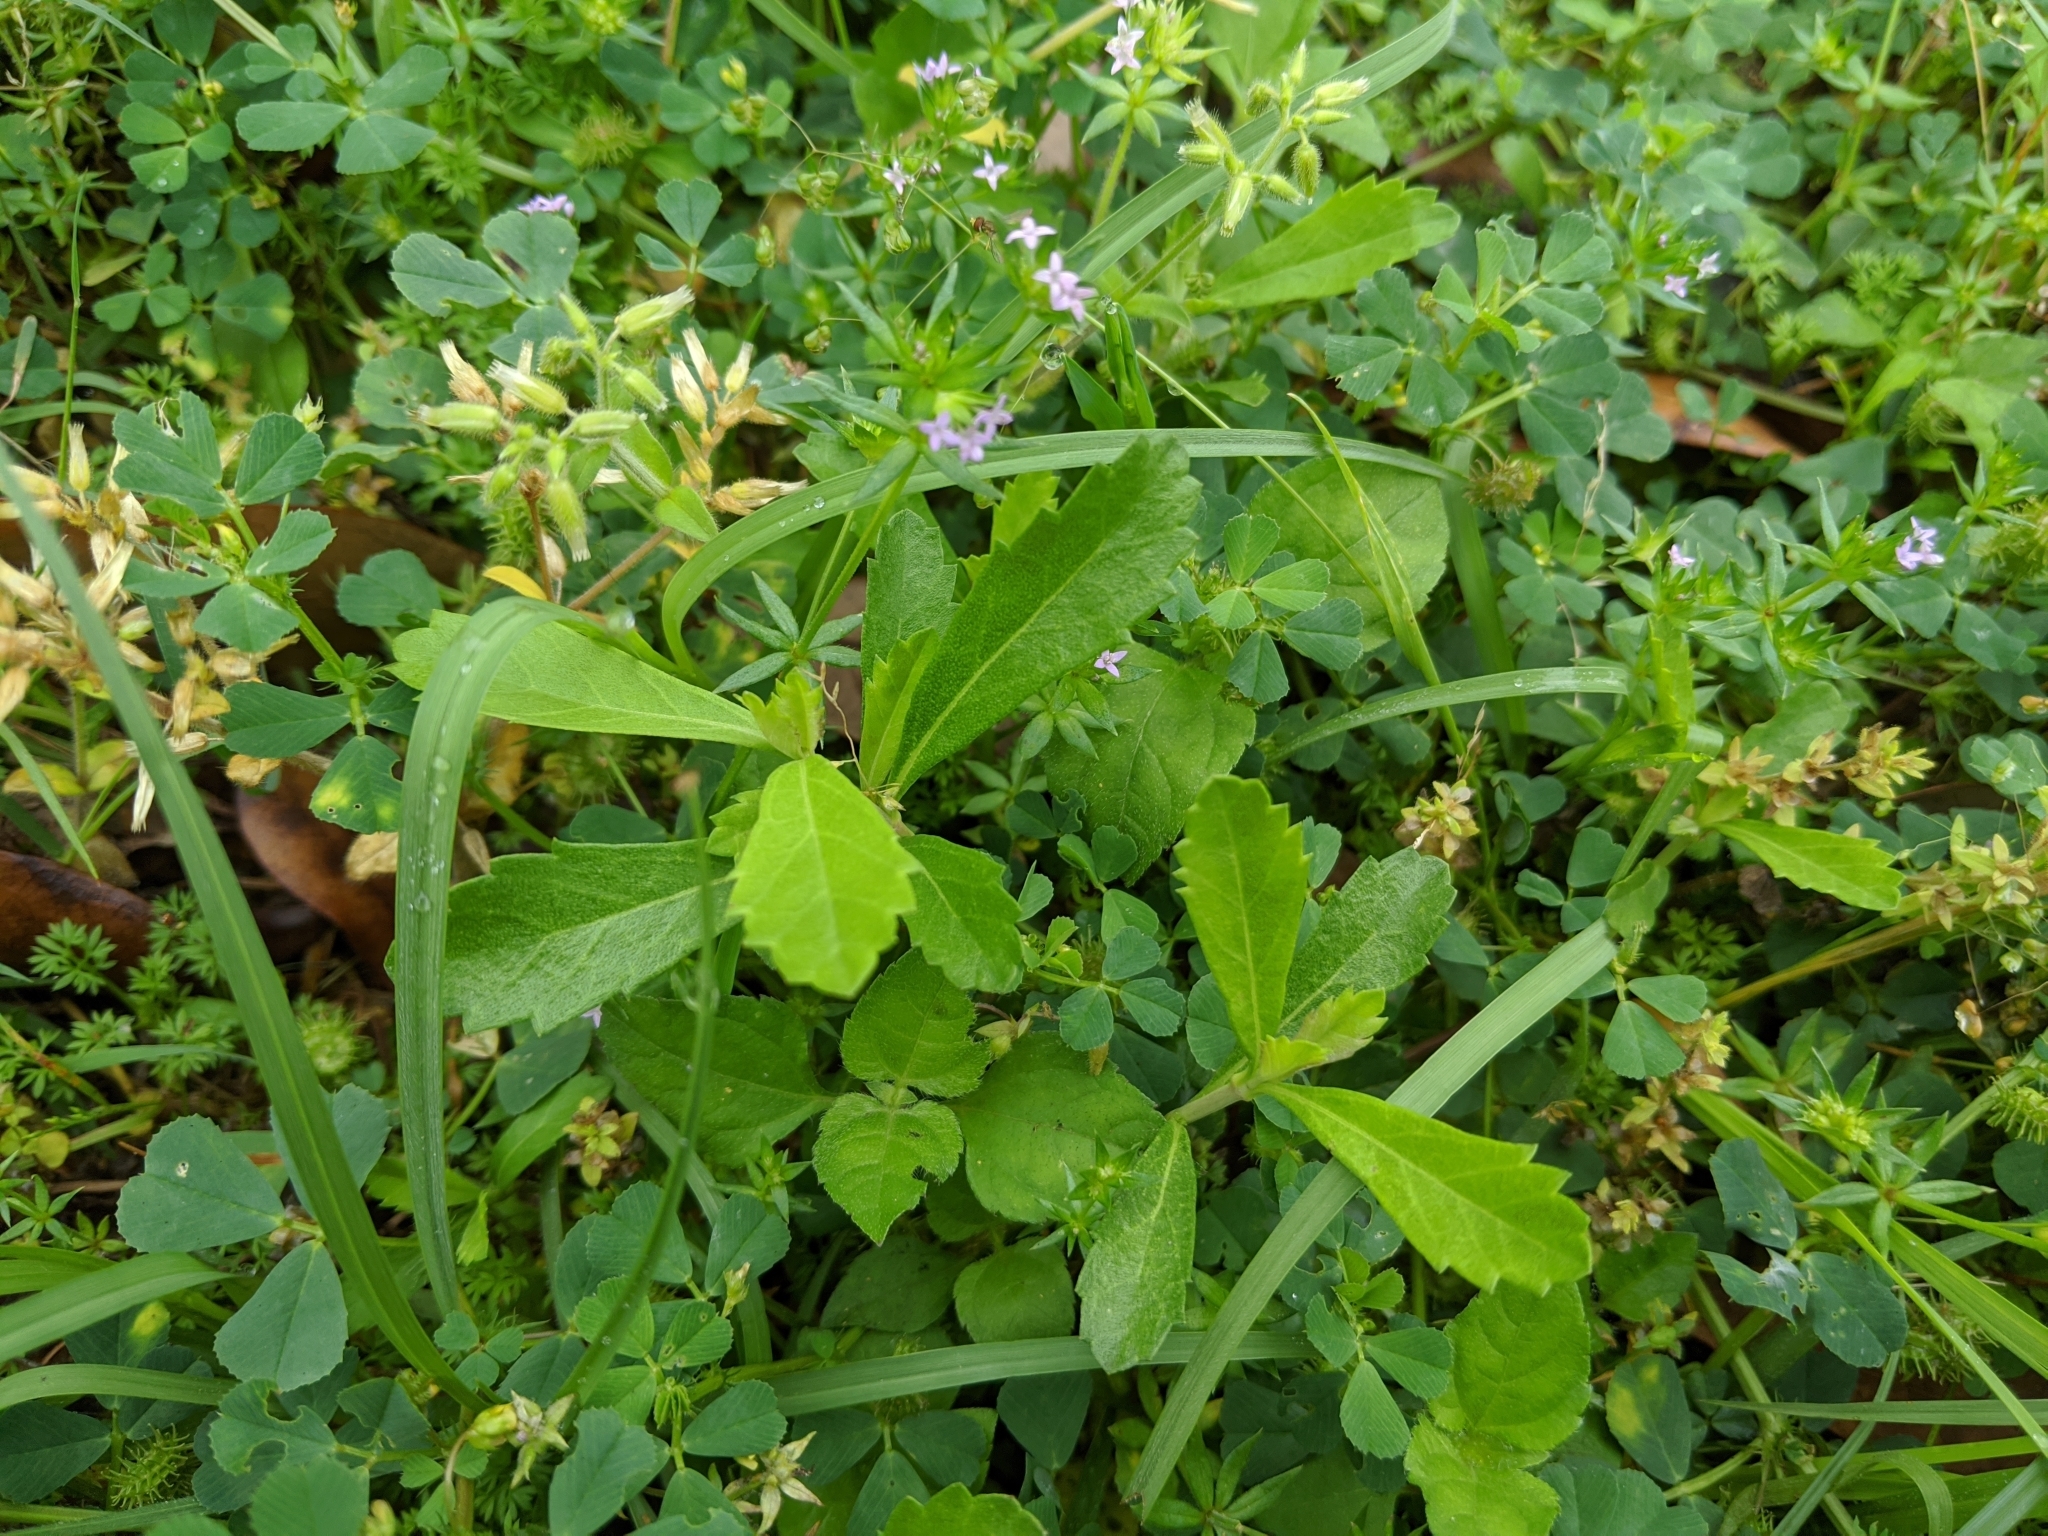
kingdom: Plantae
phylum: Tracheophyta
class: Magnoliopsida
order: Lamiales
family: Verbenaceae
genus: Phyla
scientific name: Phyla nodiflora
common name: Frogfruit
